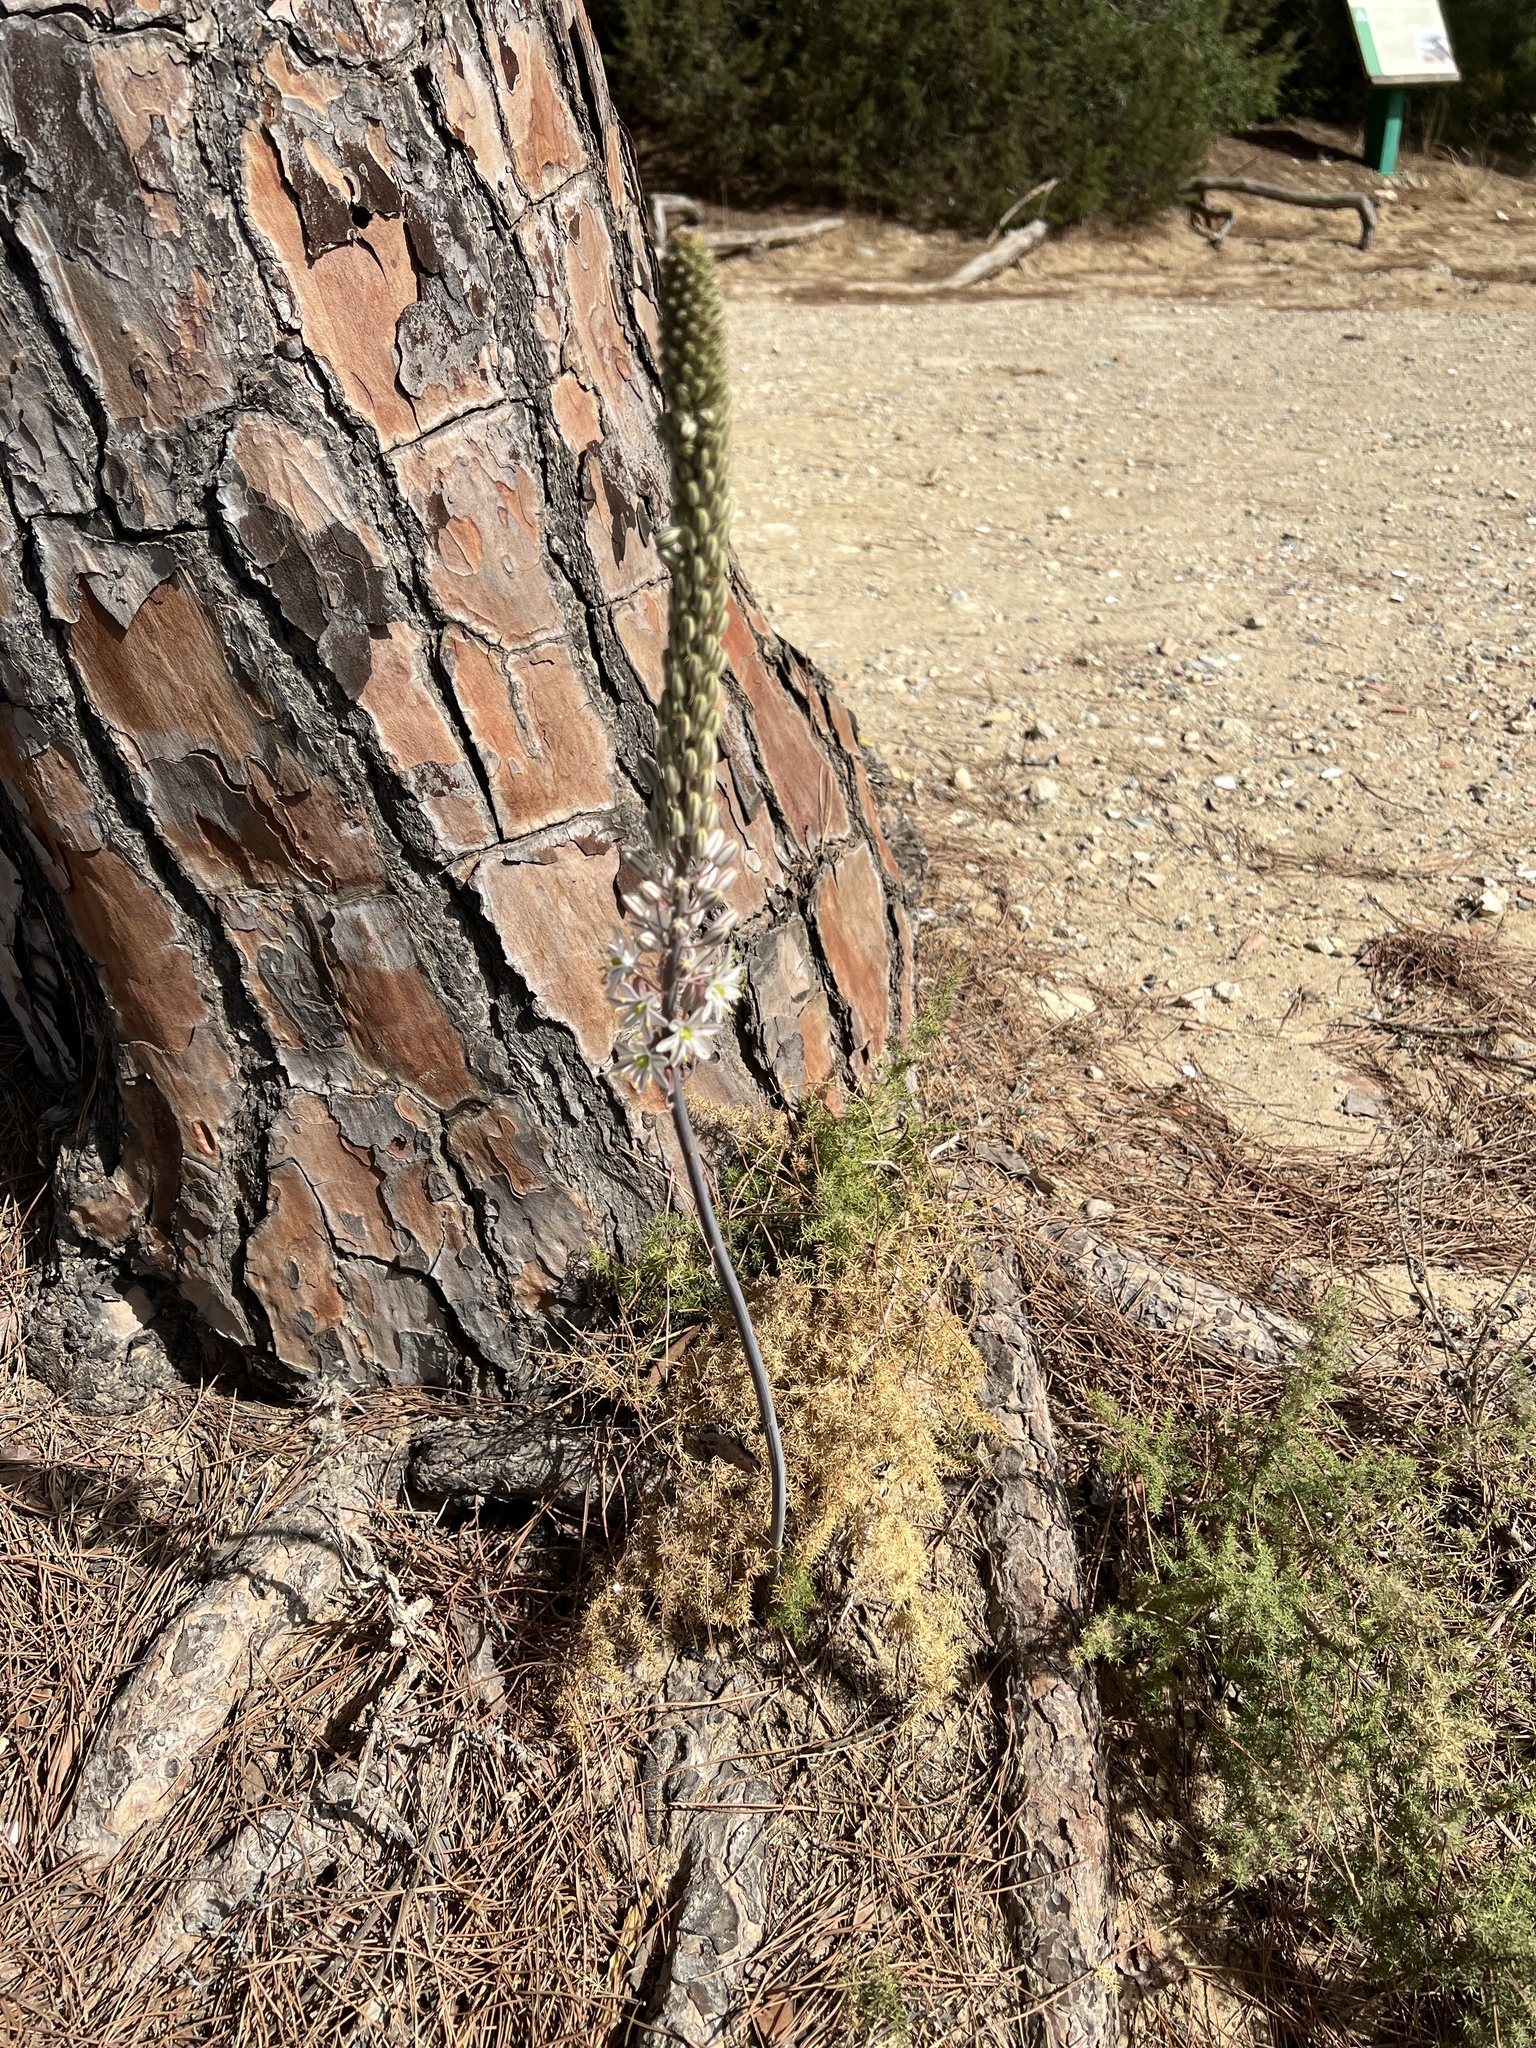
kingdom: Plantae
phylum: Tracheophyta
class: Liliopsida
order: Asparagales
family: Asparagaceae
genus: Drimia
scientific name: Drimia maritima
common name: Maritime squill
